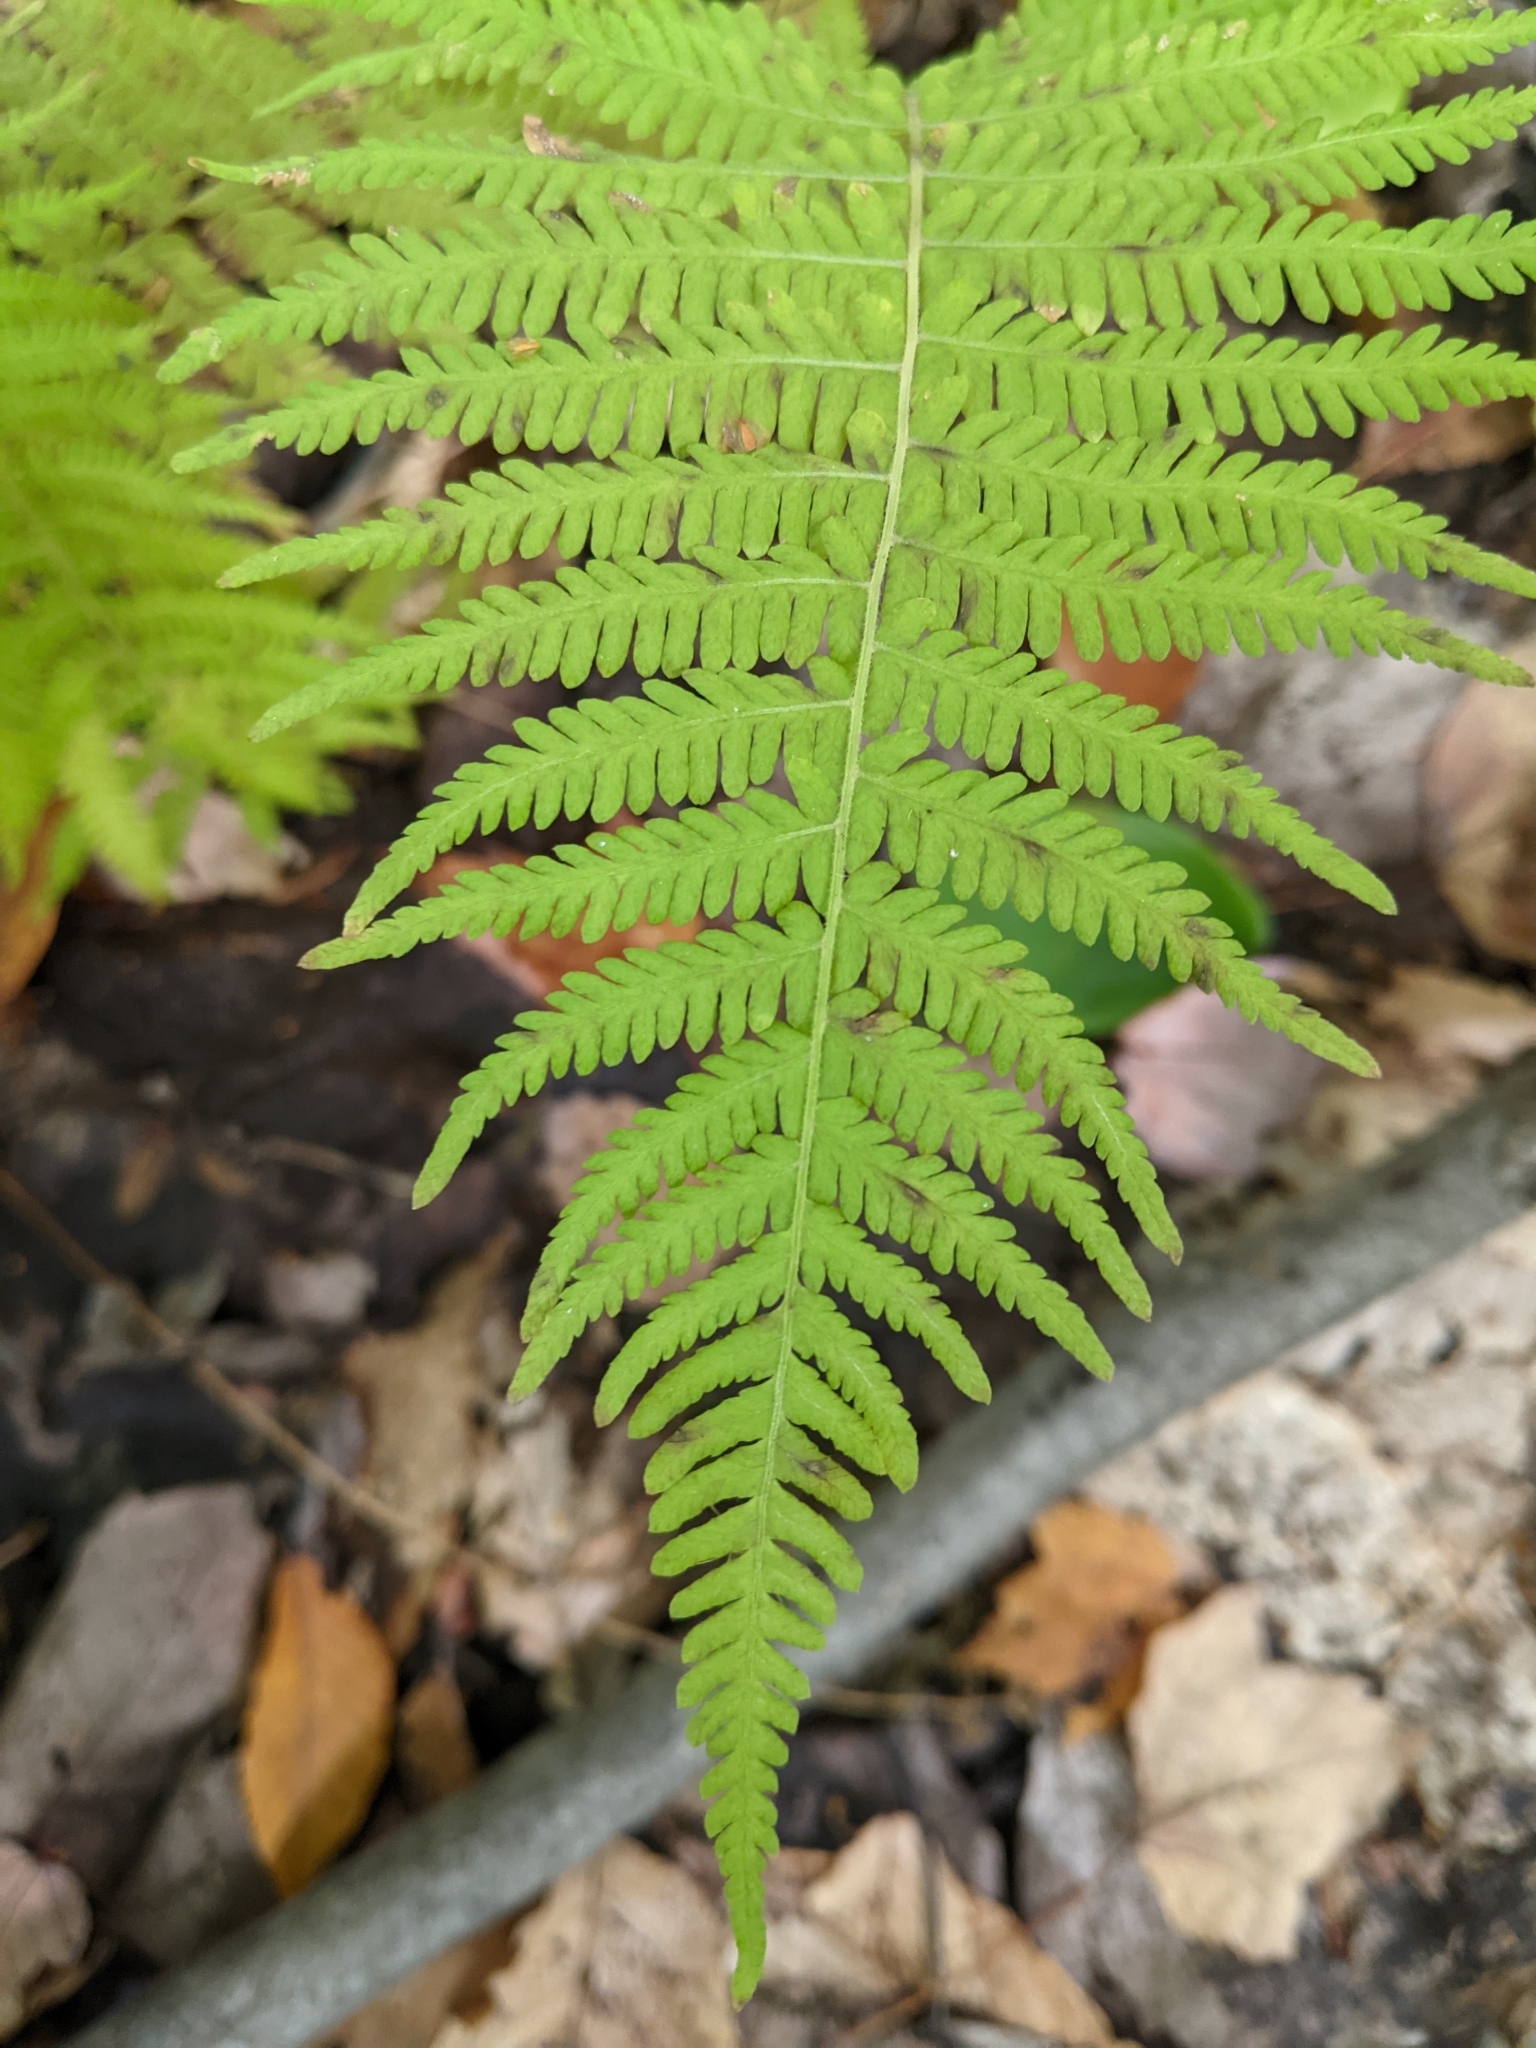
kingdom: Plantae
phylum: Tracheophyta
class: Polypodiopsida
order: Polypodiales
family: Thelypteridaceae
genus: Amauropelta
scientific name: Amauropelta noveboracensis
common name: New york fern
